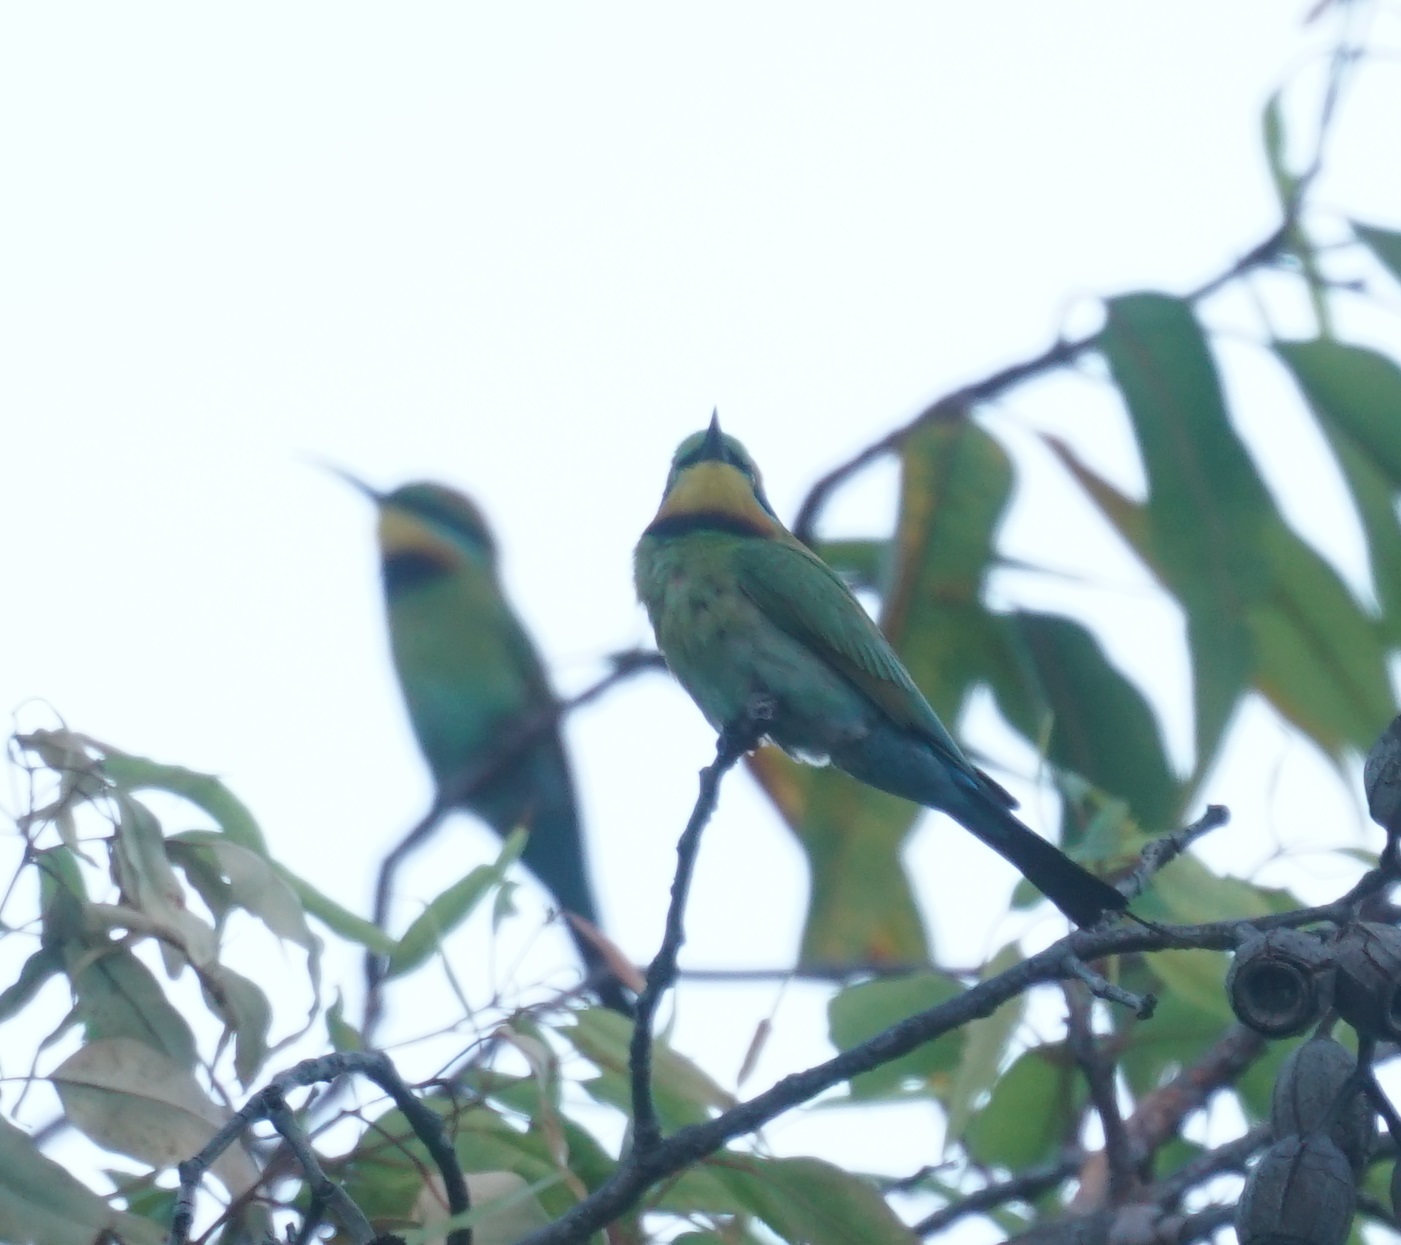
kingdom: Animalia
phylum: Chordata
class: Aves
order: Coraciiformes
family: Meropidae
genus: Merops
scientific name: Merops ornatus
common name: Rainbow bee-eater
